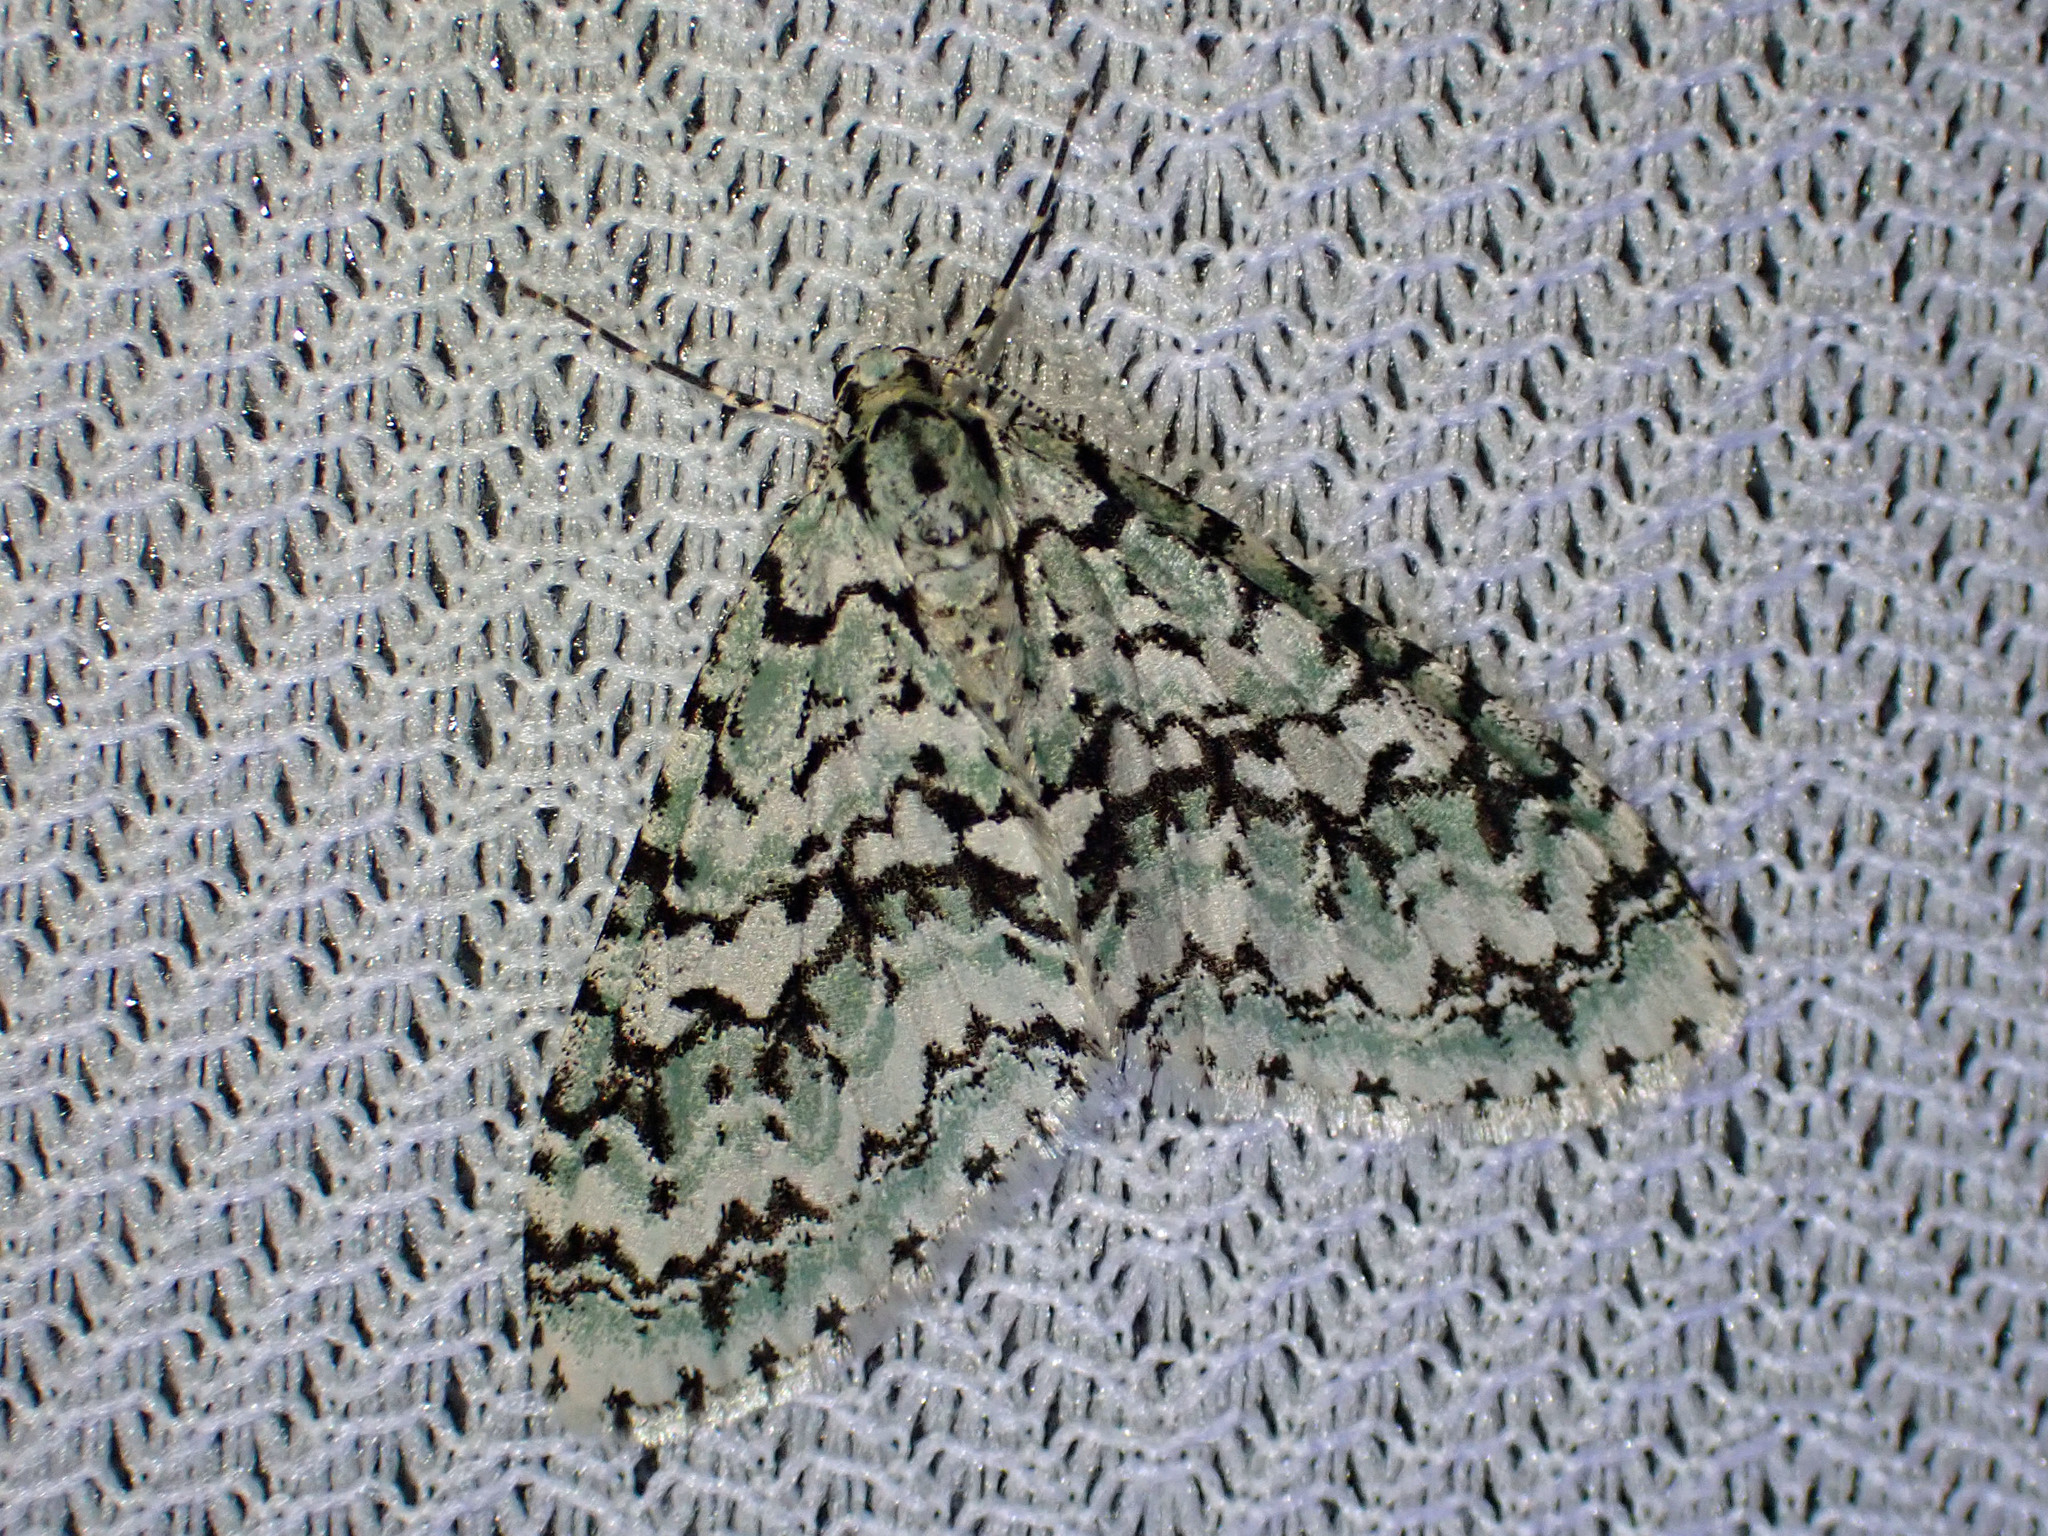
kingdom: Animalia
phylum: Arthropoda
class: Insecta
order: Lepidoptera
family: Geometridae
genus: Cladara
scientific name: Cladara atroliturata
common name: Scribbler
